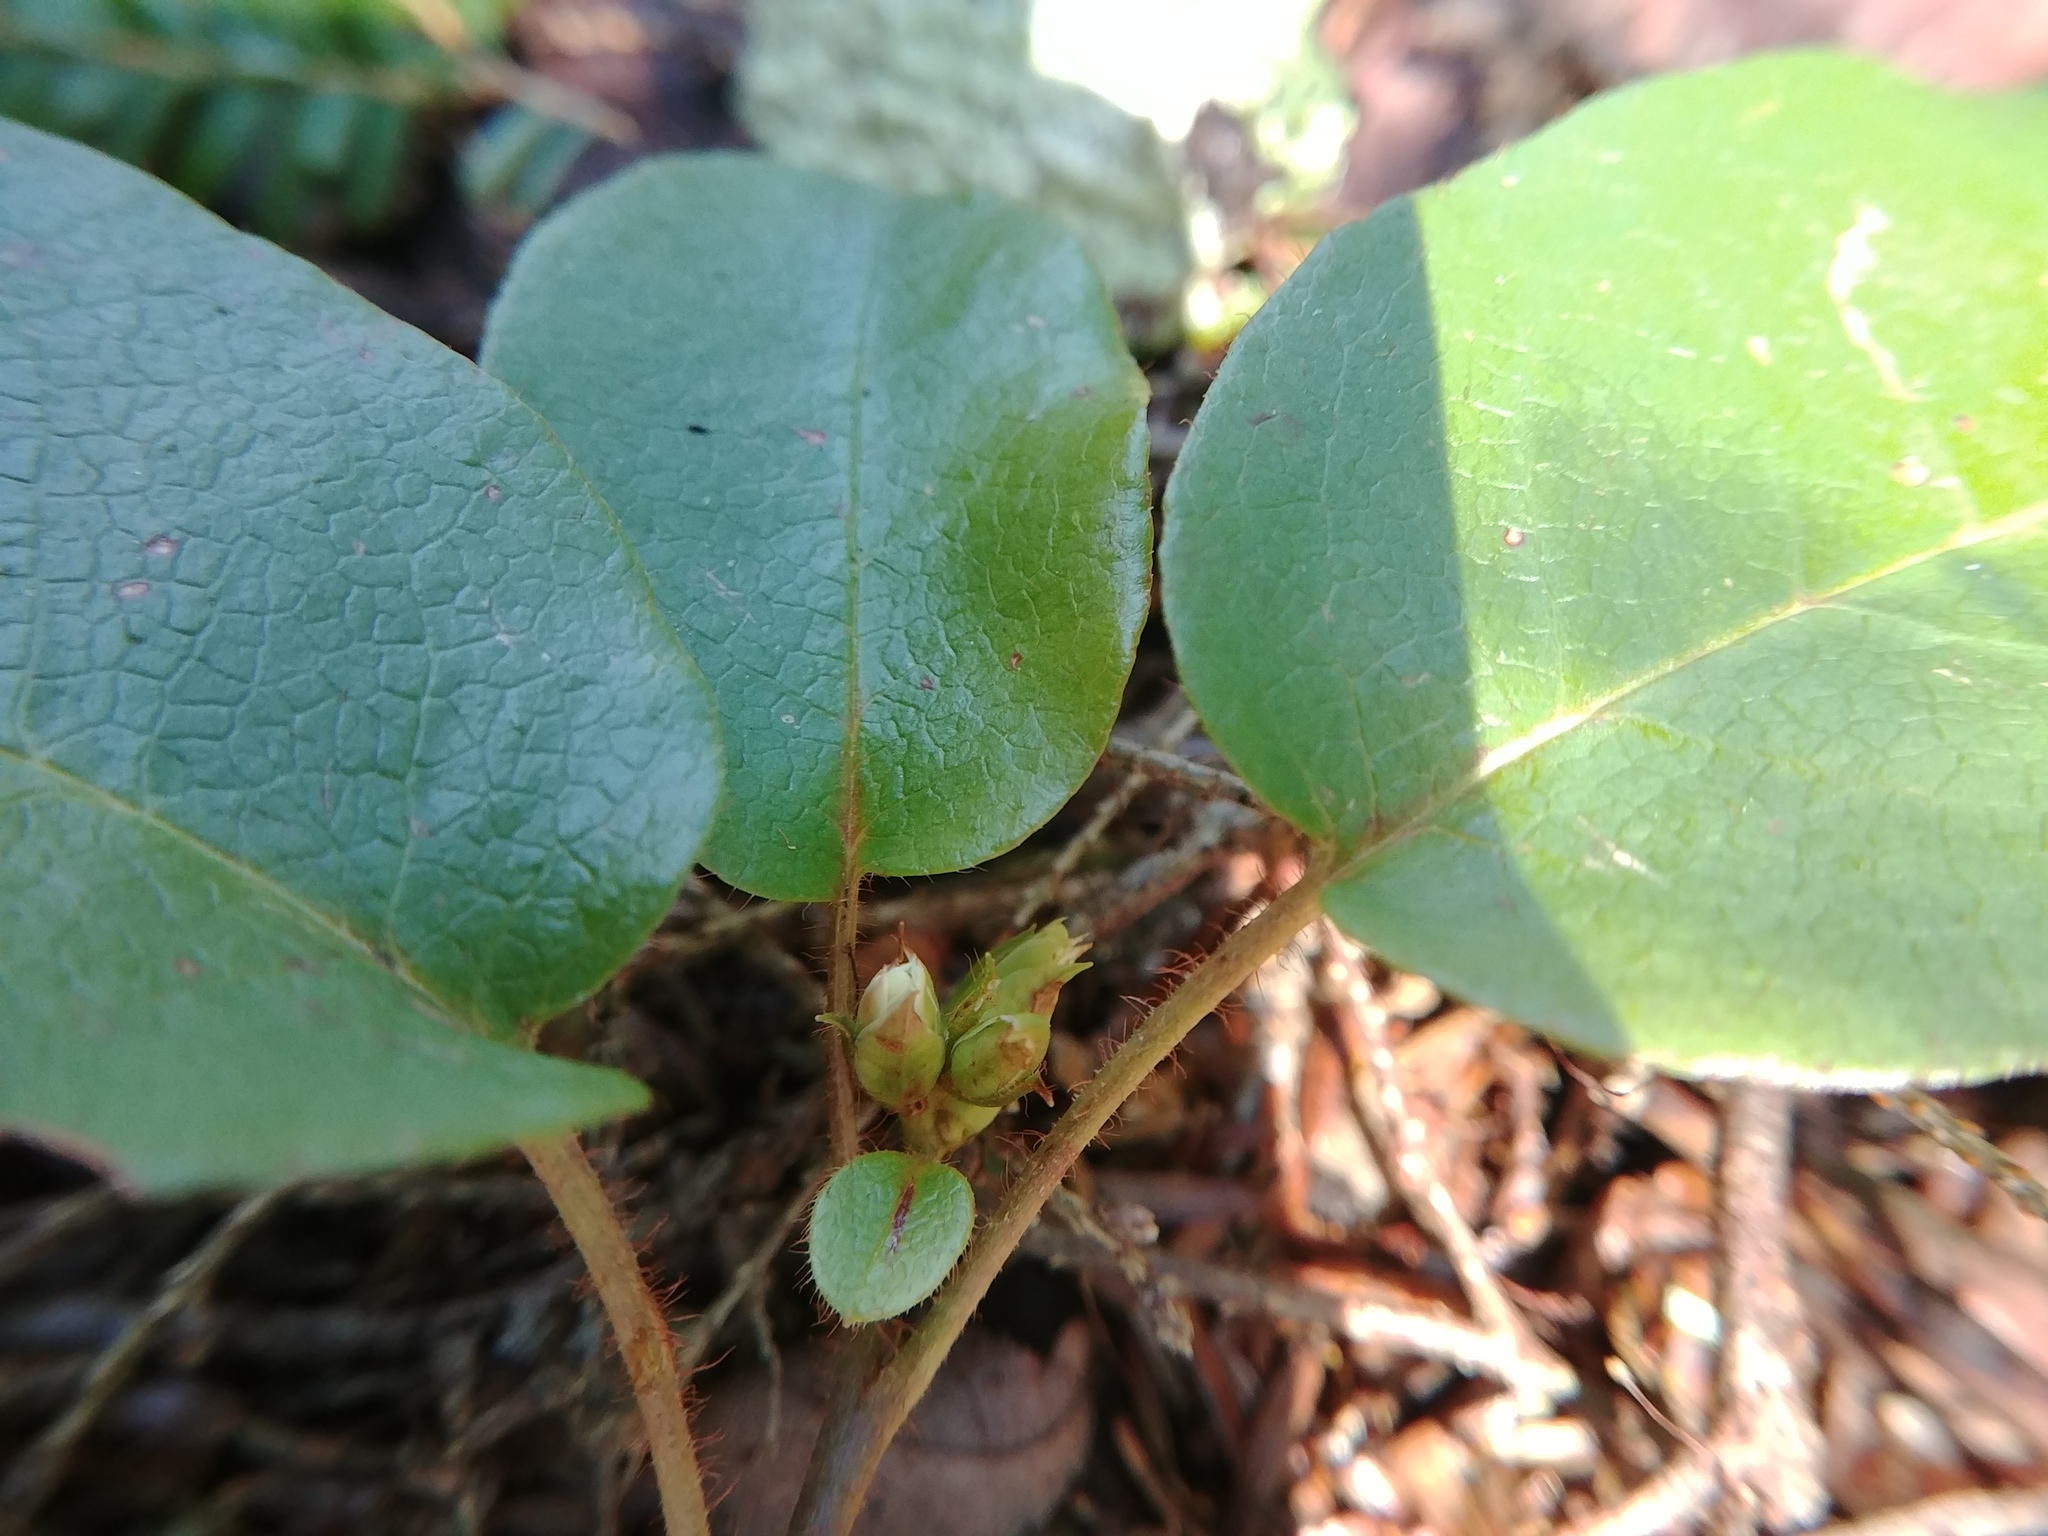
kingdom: Plantae
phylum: Tracheophyta
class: Magnoliopsida
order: Ericales
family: Ericaceae
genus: Epigaea
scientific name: Epigaea repens
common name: Gravelroot
